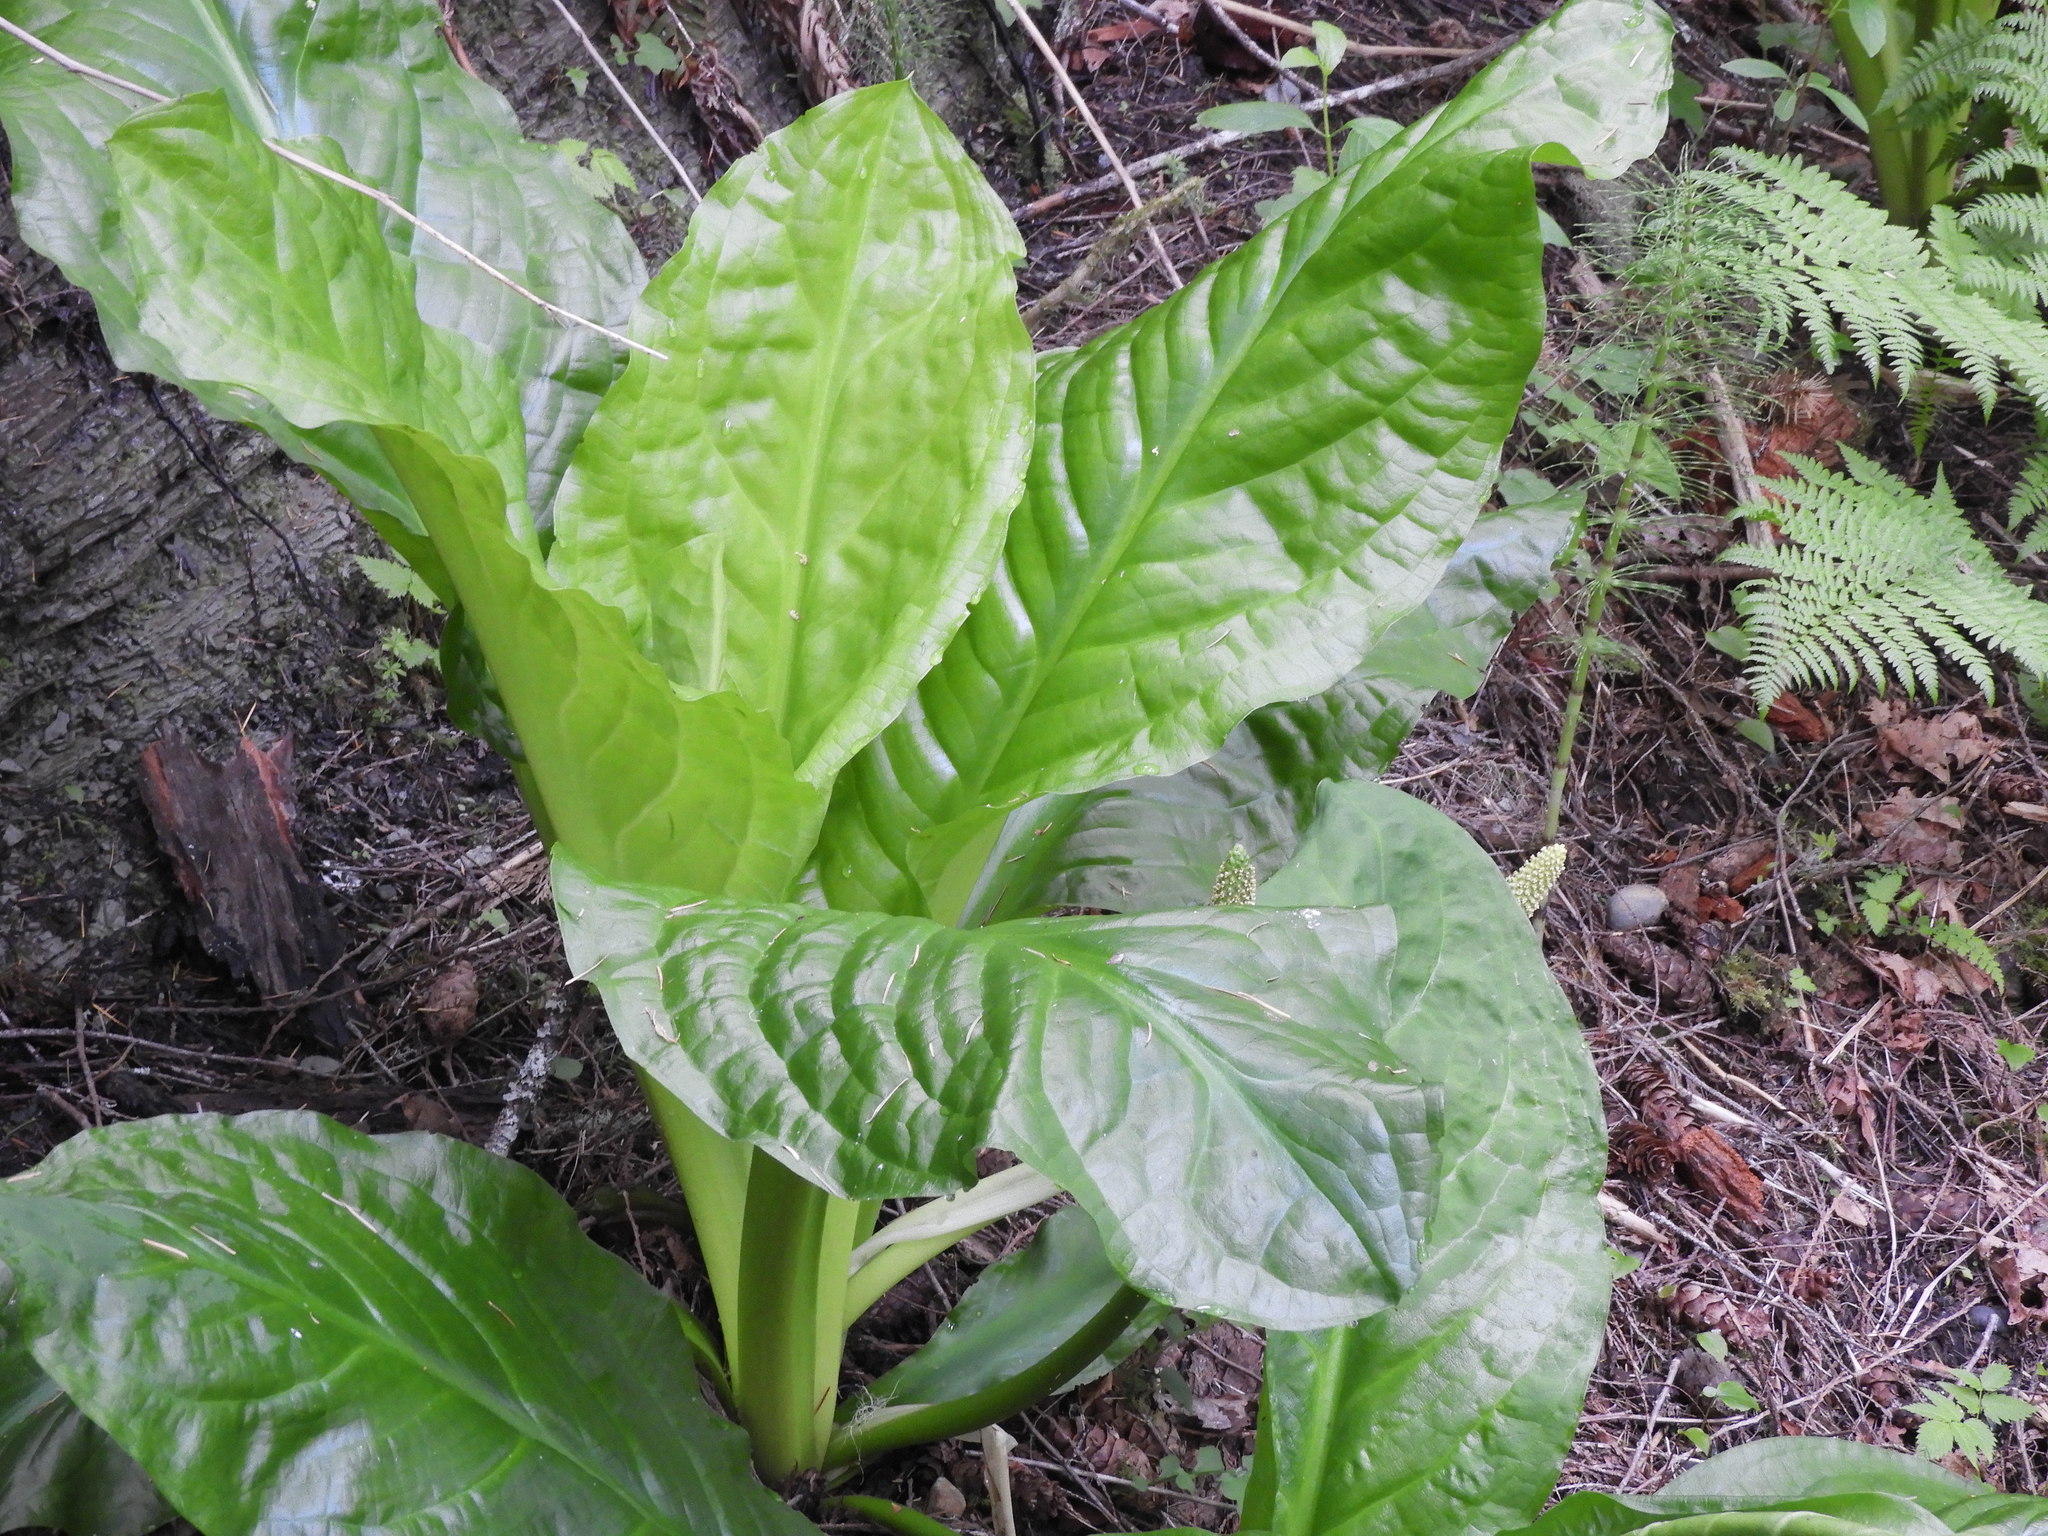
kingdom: Plantae
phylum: Tracheophyta
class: Liliopsida
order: Alismatales
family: Araceae
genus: Lysichiton
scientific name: Lysichiton americanus
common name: American skunk cabbage
